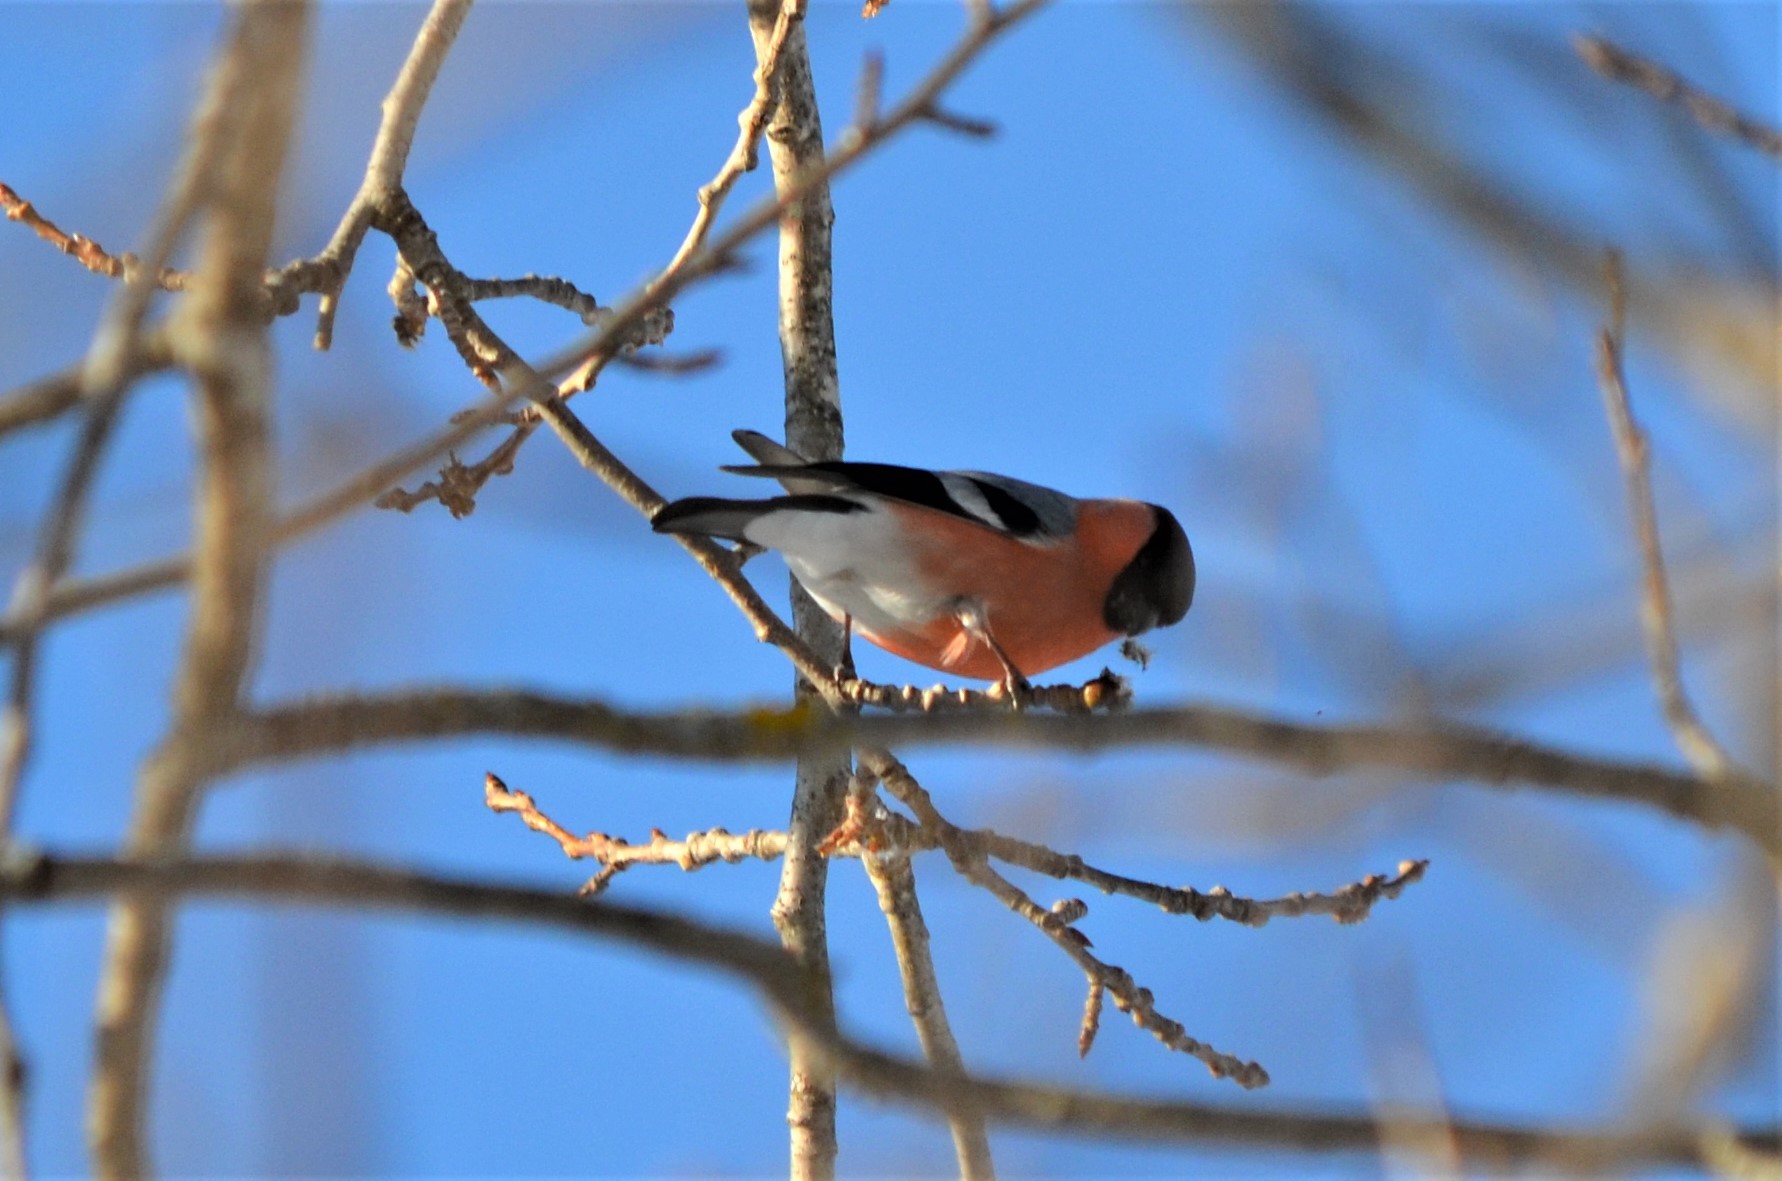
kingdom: Animalia
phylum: Chordata
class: Aves
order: Passeriformes
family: Fringillidae
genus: Pyrrhula
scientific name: Pyrrhula pyrrhula
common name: Eurasian bullfinch
